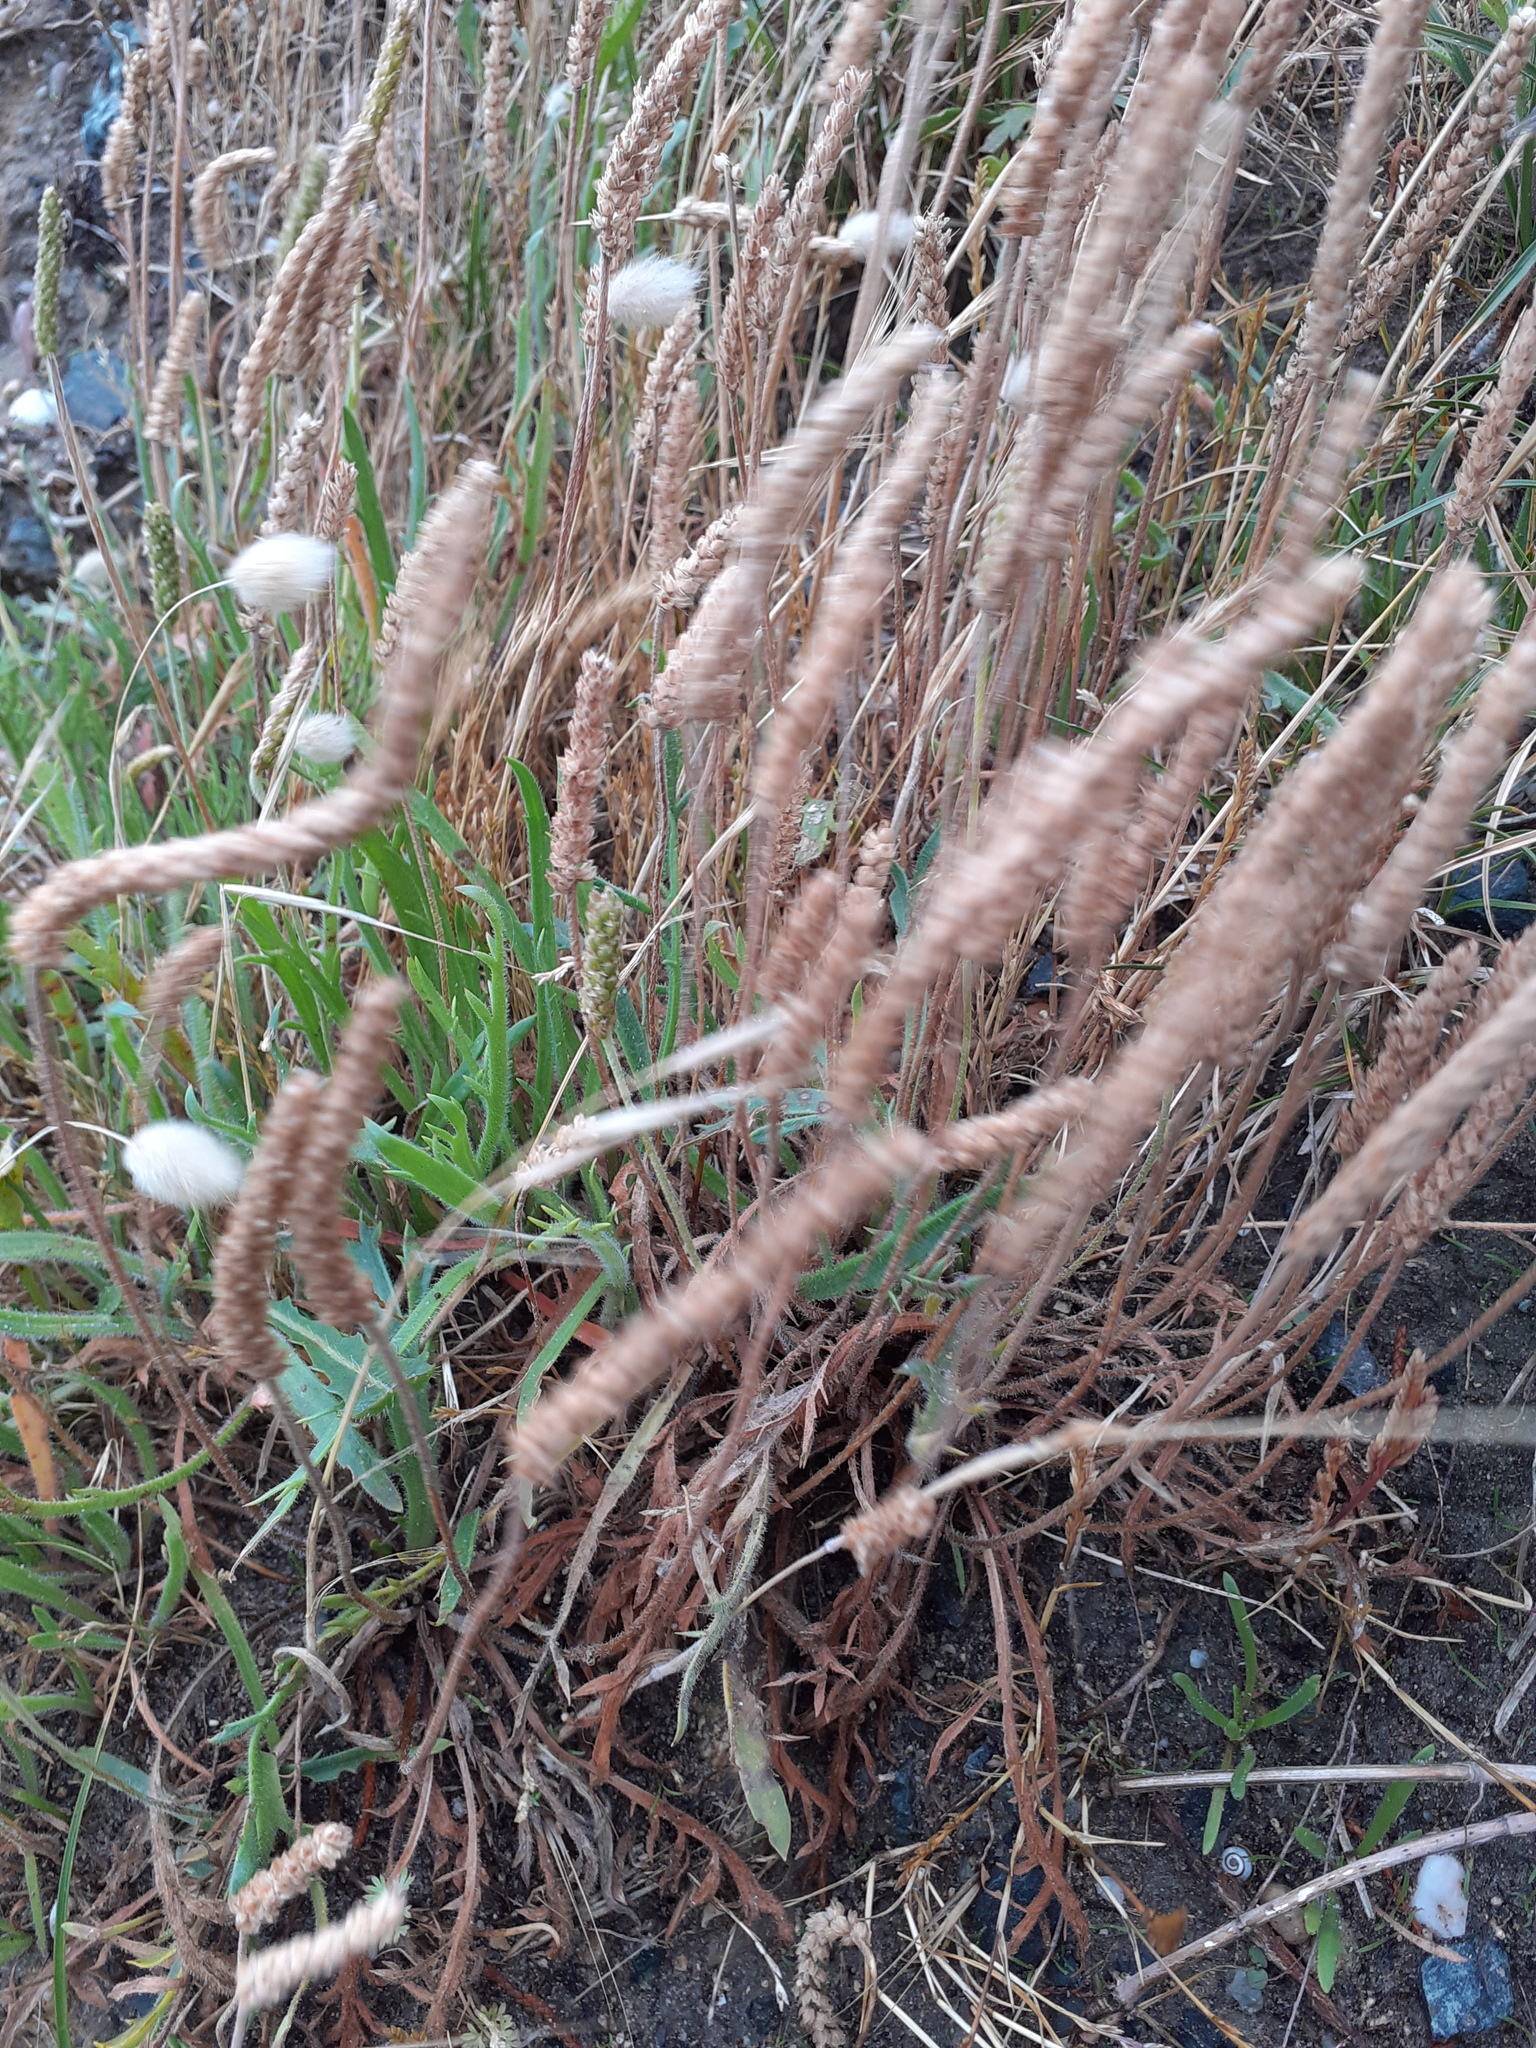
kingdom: Plantae
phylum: Tracheophyta
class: Magnoliopsida
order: Lamiales
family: Plantaginaceae
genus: Plantago
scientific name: Plantago coronopus
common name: Buck's-horn plantain
